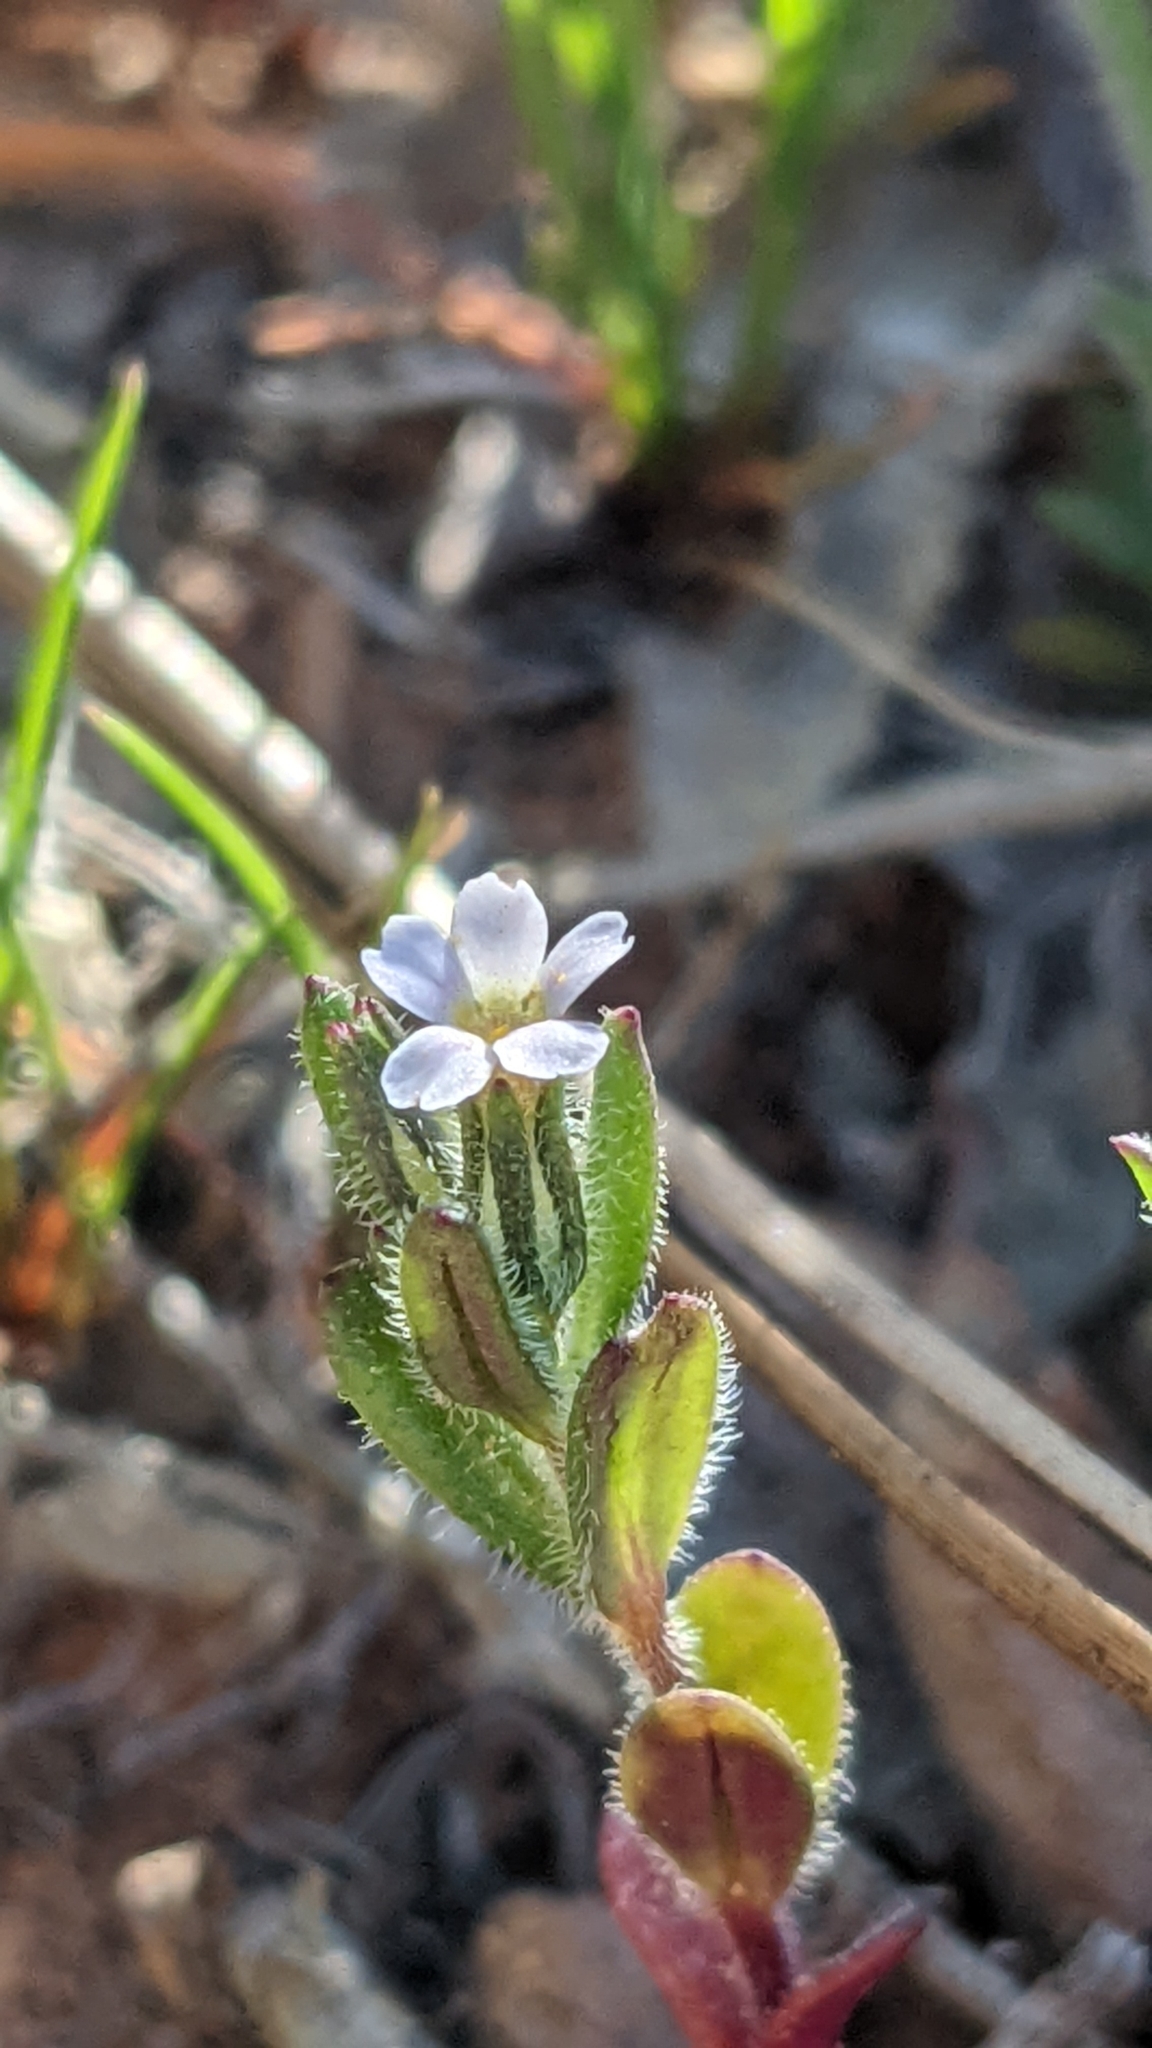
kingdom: Plantae
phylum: Tracheophyta
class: Magnoliopsida
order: Ericales
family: Polemoniaceae
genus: Phlox
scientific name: Phlox gracilis
